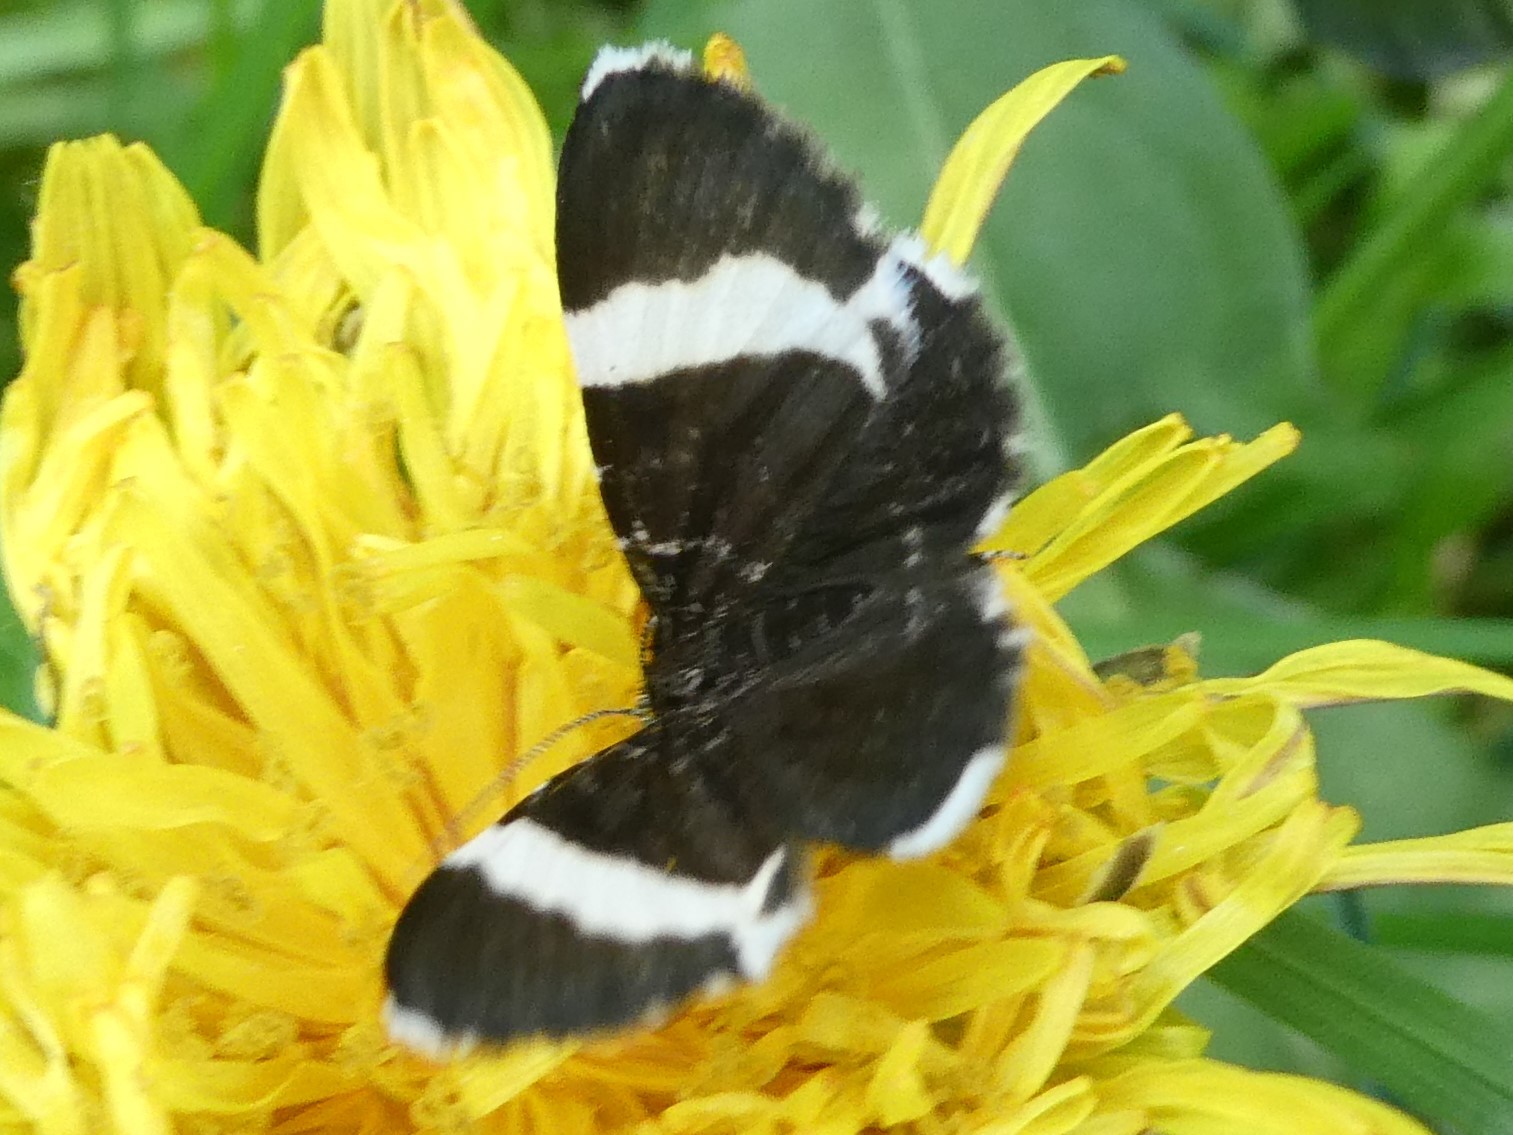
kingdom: Animalia
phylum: Arthropoda
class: Insecta
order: Lepidoptera
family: Geometridae
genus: Trichodezia
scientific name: Trichodezia albovittata
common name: White striped black
